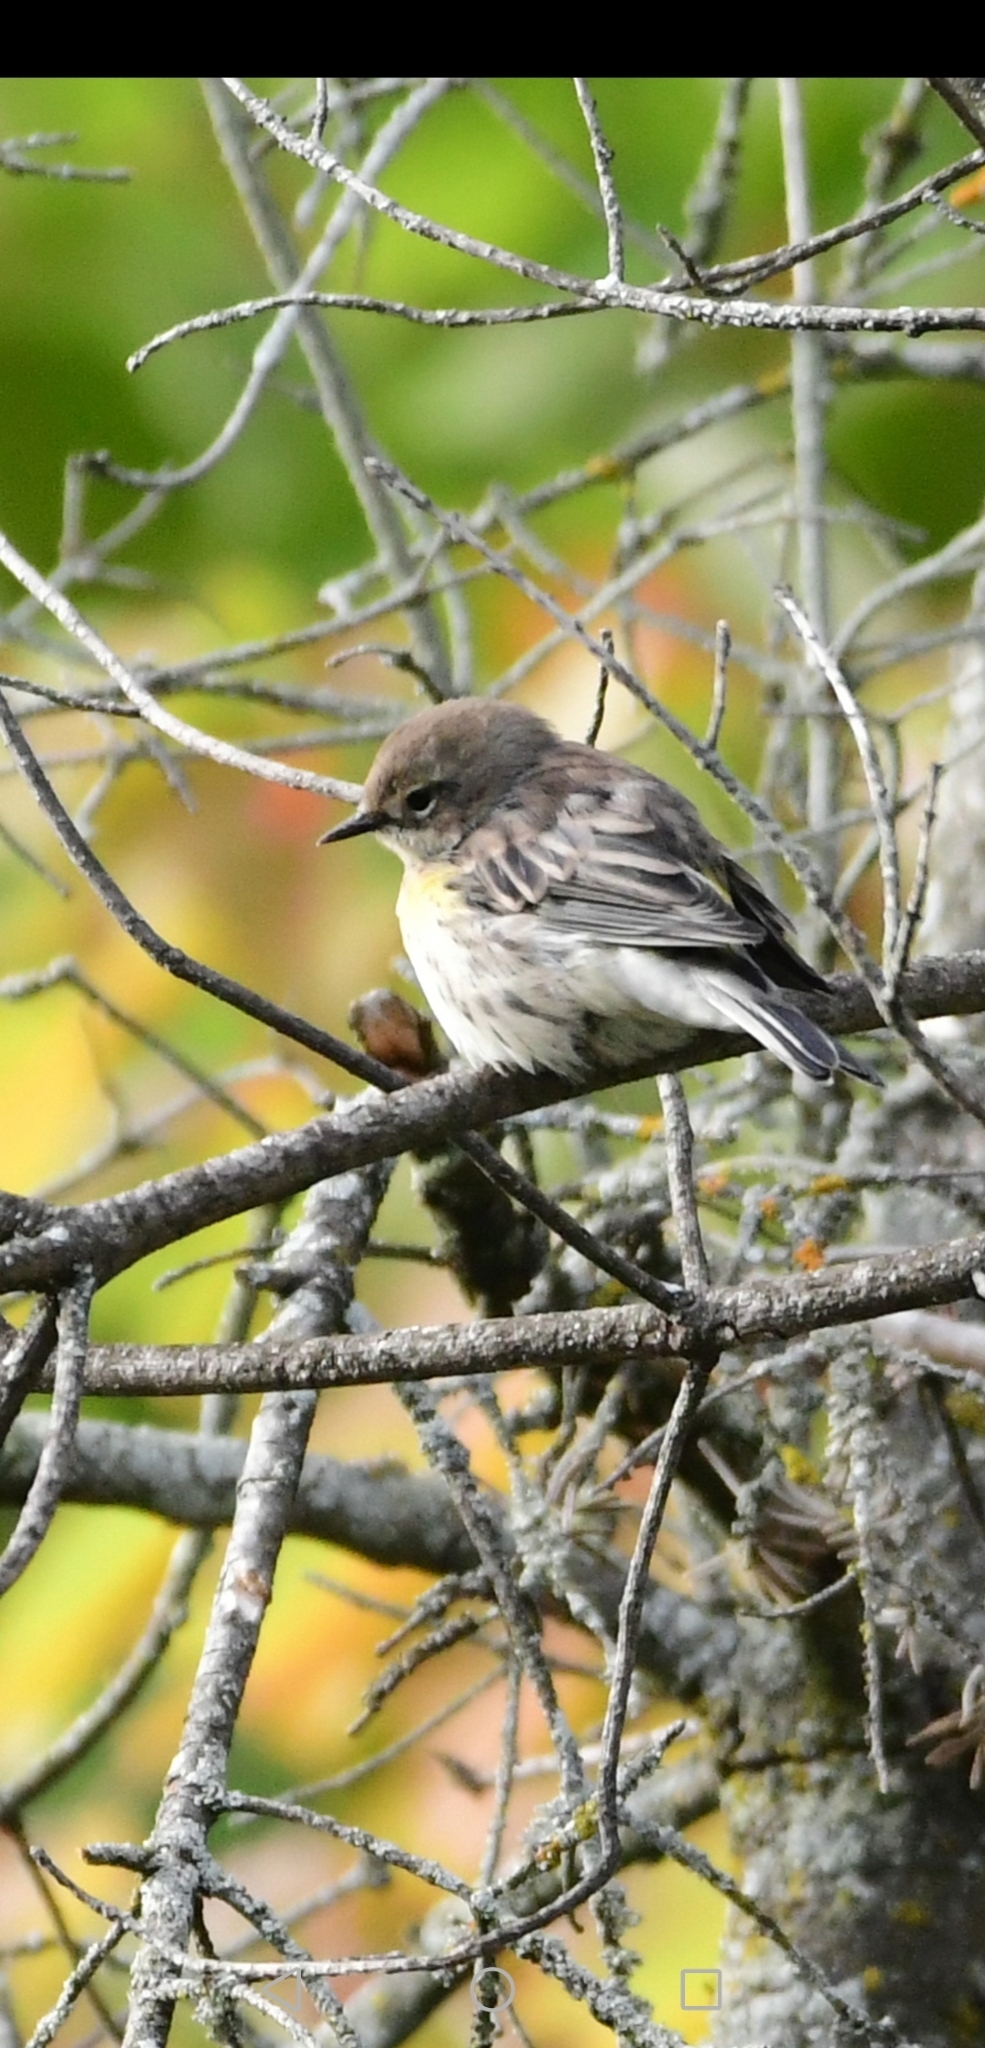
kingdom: Animalia
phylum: Chordata
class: Aves
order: Passeriformes
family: Parulidae
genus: Setophaga
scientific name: Setophaga coronata
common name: Myrtle warbler
